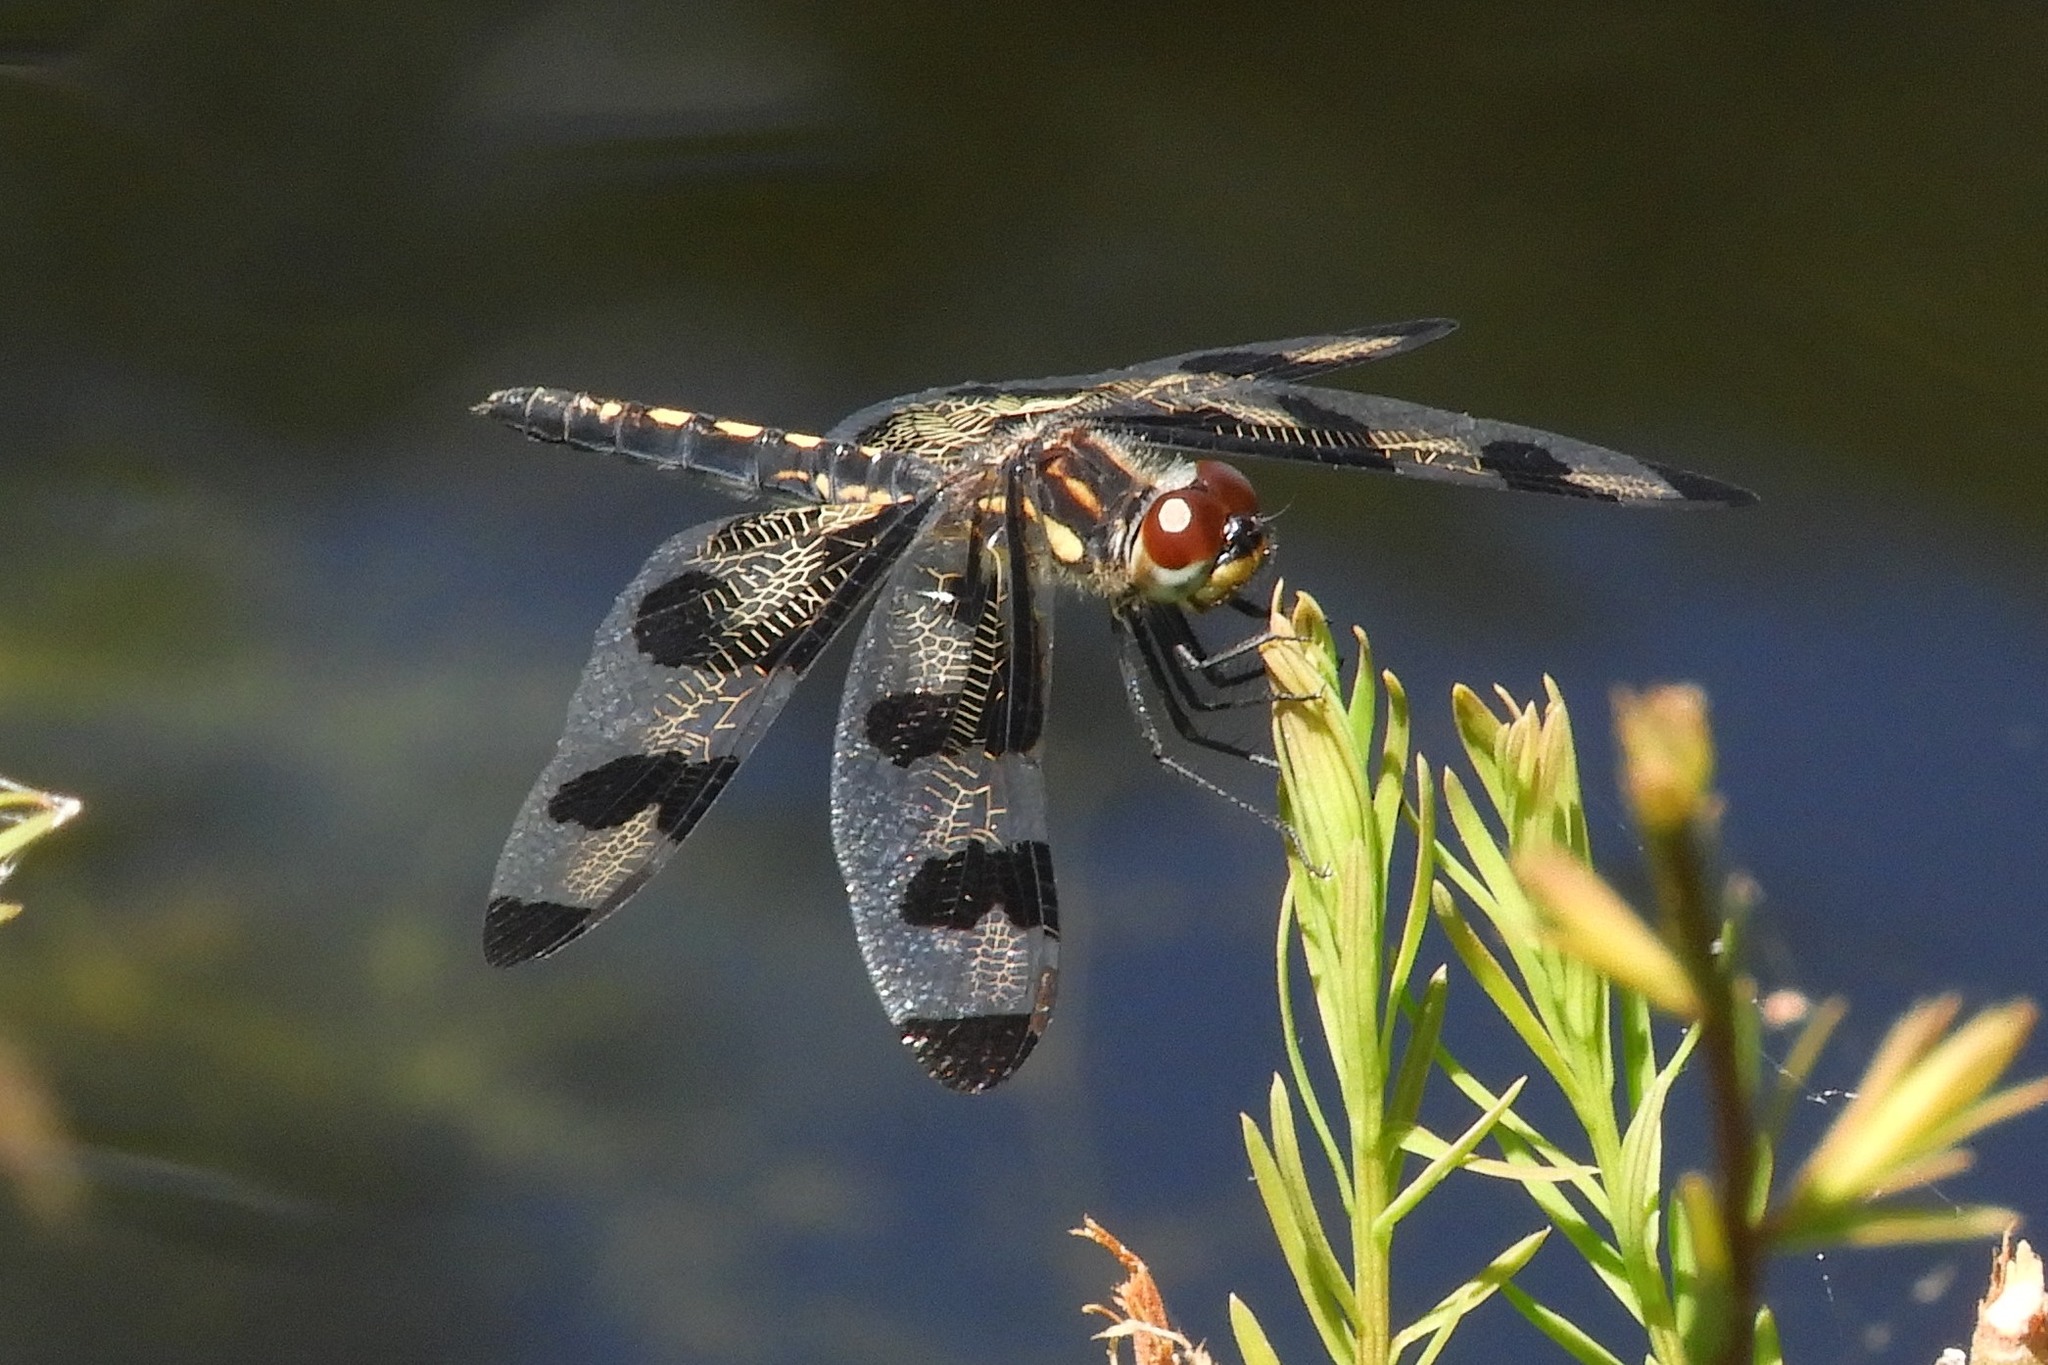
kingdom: Animalia
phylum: Arthropoda
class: Insecta
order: Odonata
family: Libellulidae
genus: Celithemis
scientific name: Celithemis fasciata
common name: Banded pennant
